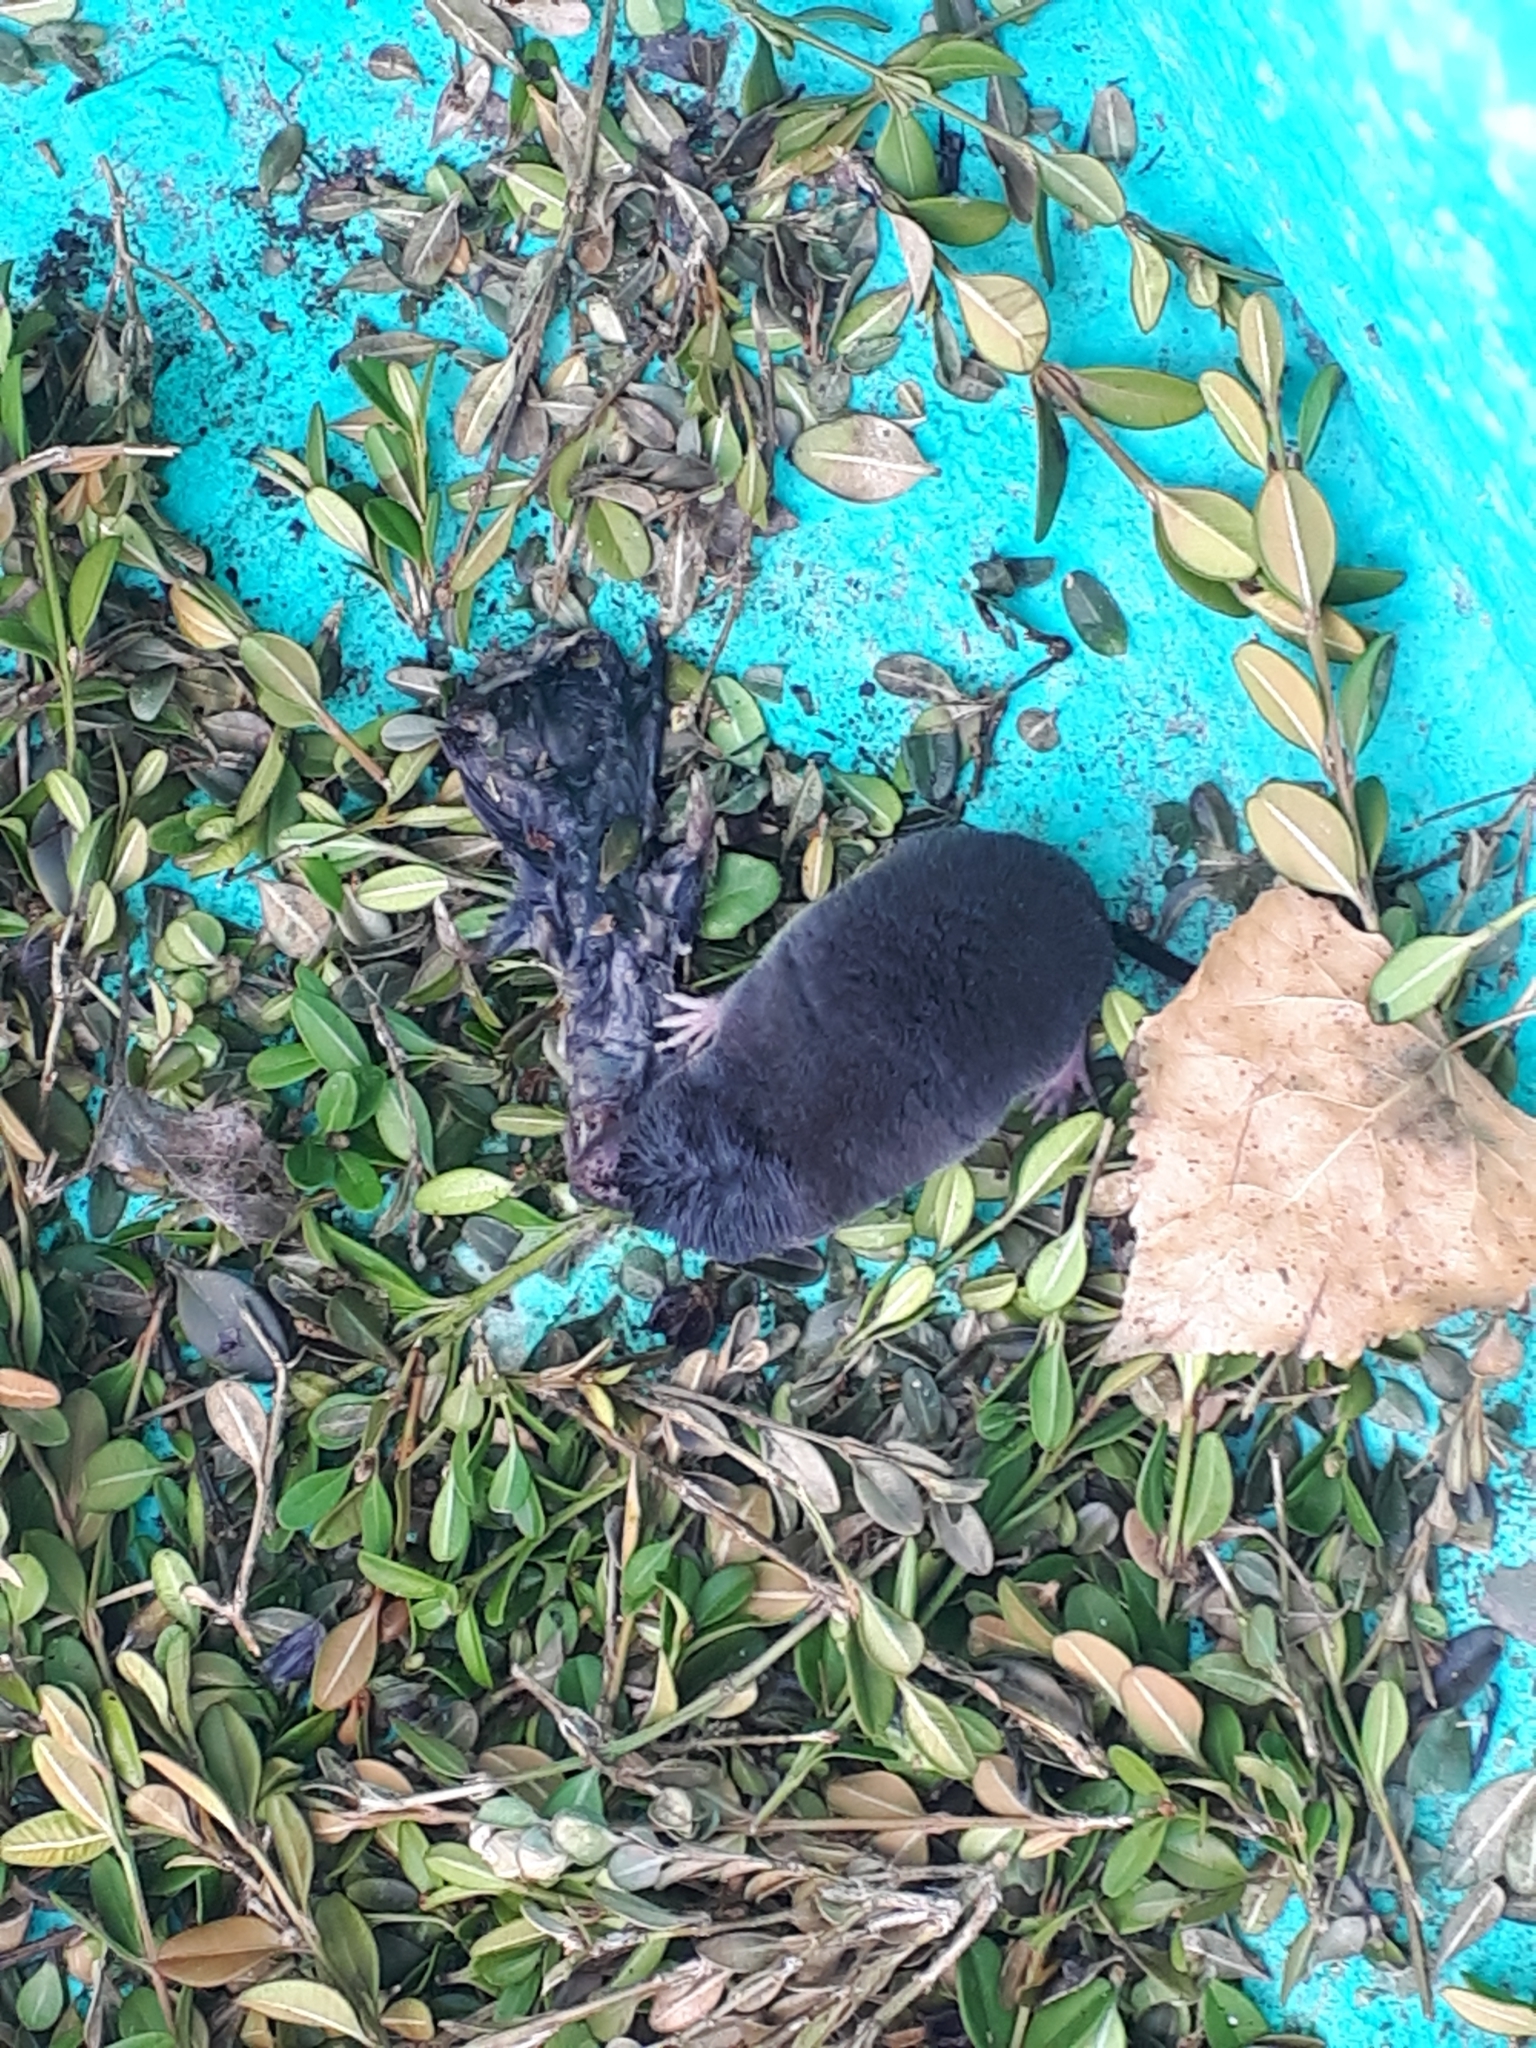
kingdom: Animalia
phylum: Chordata
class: Mammalia
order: Soricomorpha
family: Soricidae
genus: Blarina
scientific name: Blarina brevicauda
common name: Northern short-tailed shrew
